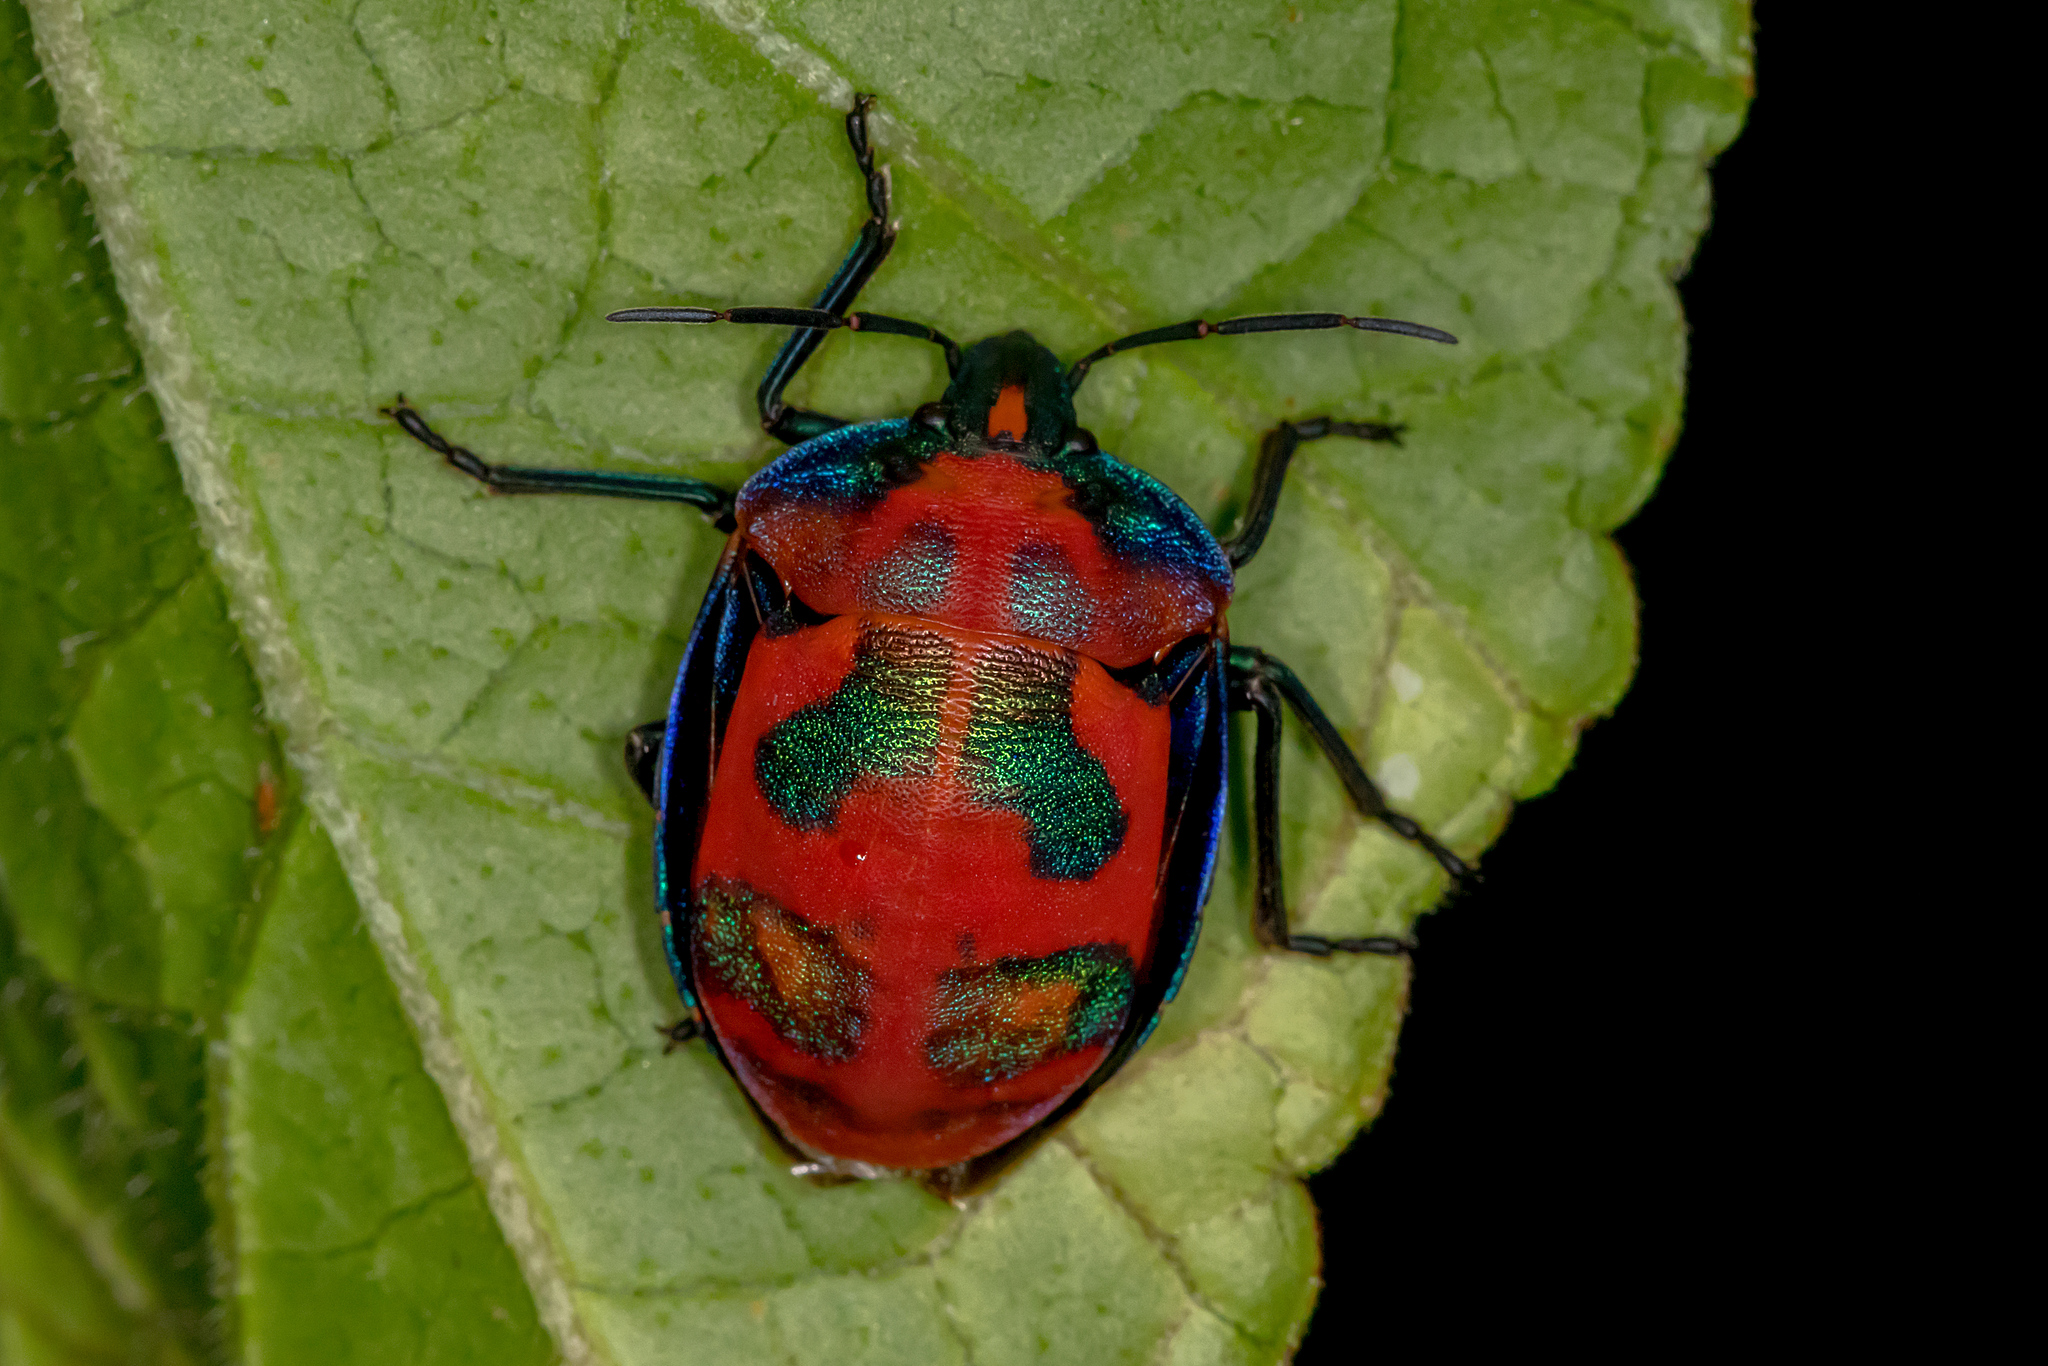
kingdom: Animalia
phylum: Arthropoda
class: Insecta
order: Hemiptera
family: Scutelleridae
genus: Tectocoris
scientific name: Tectocoris diophthalmus
